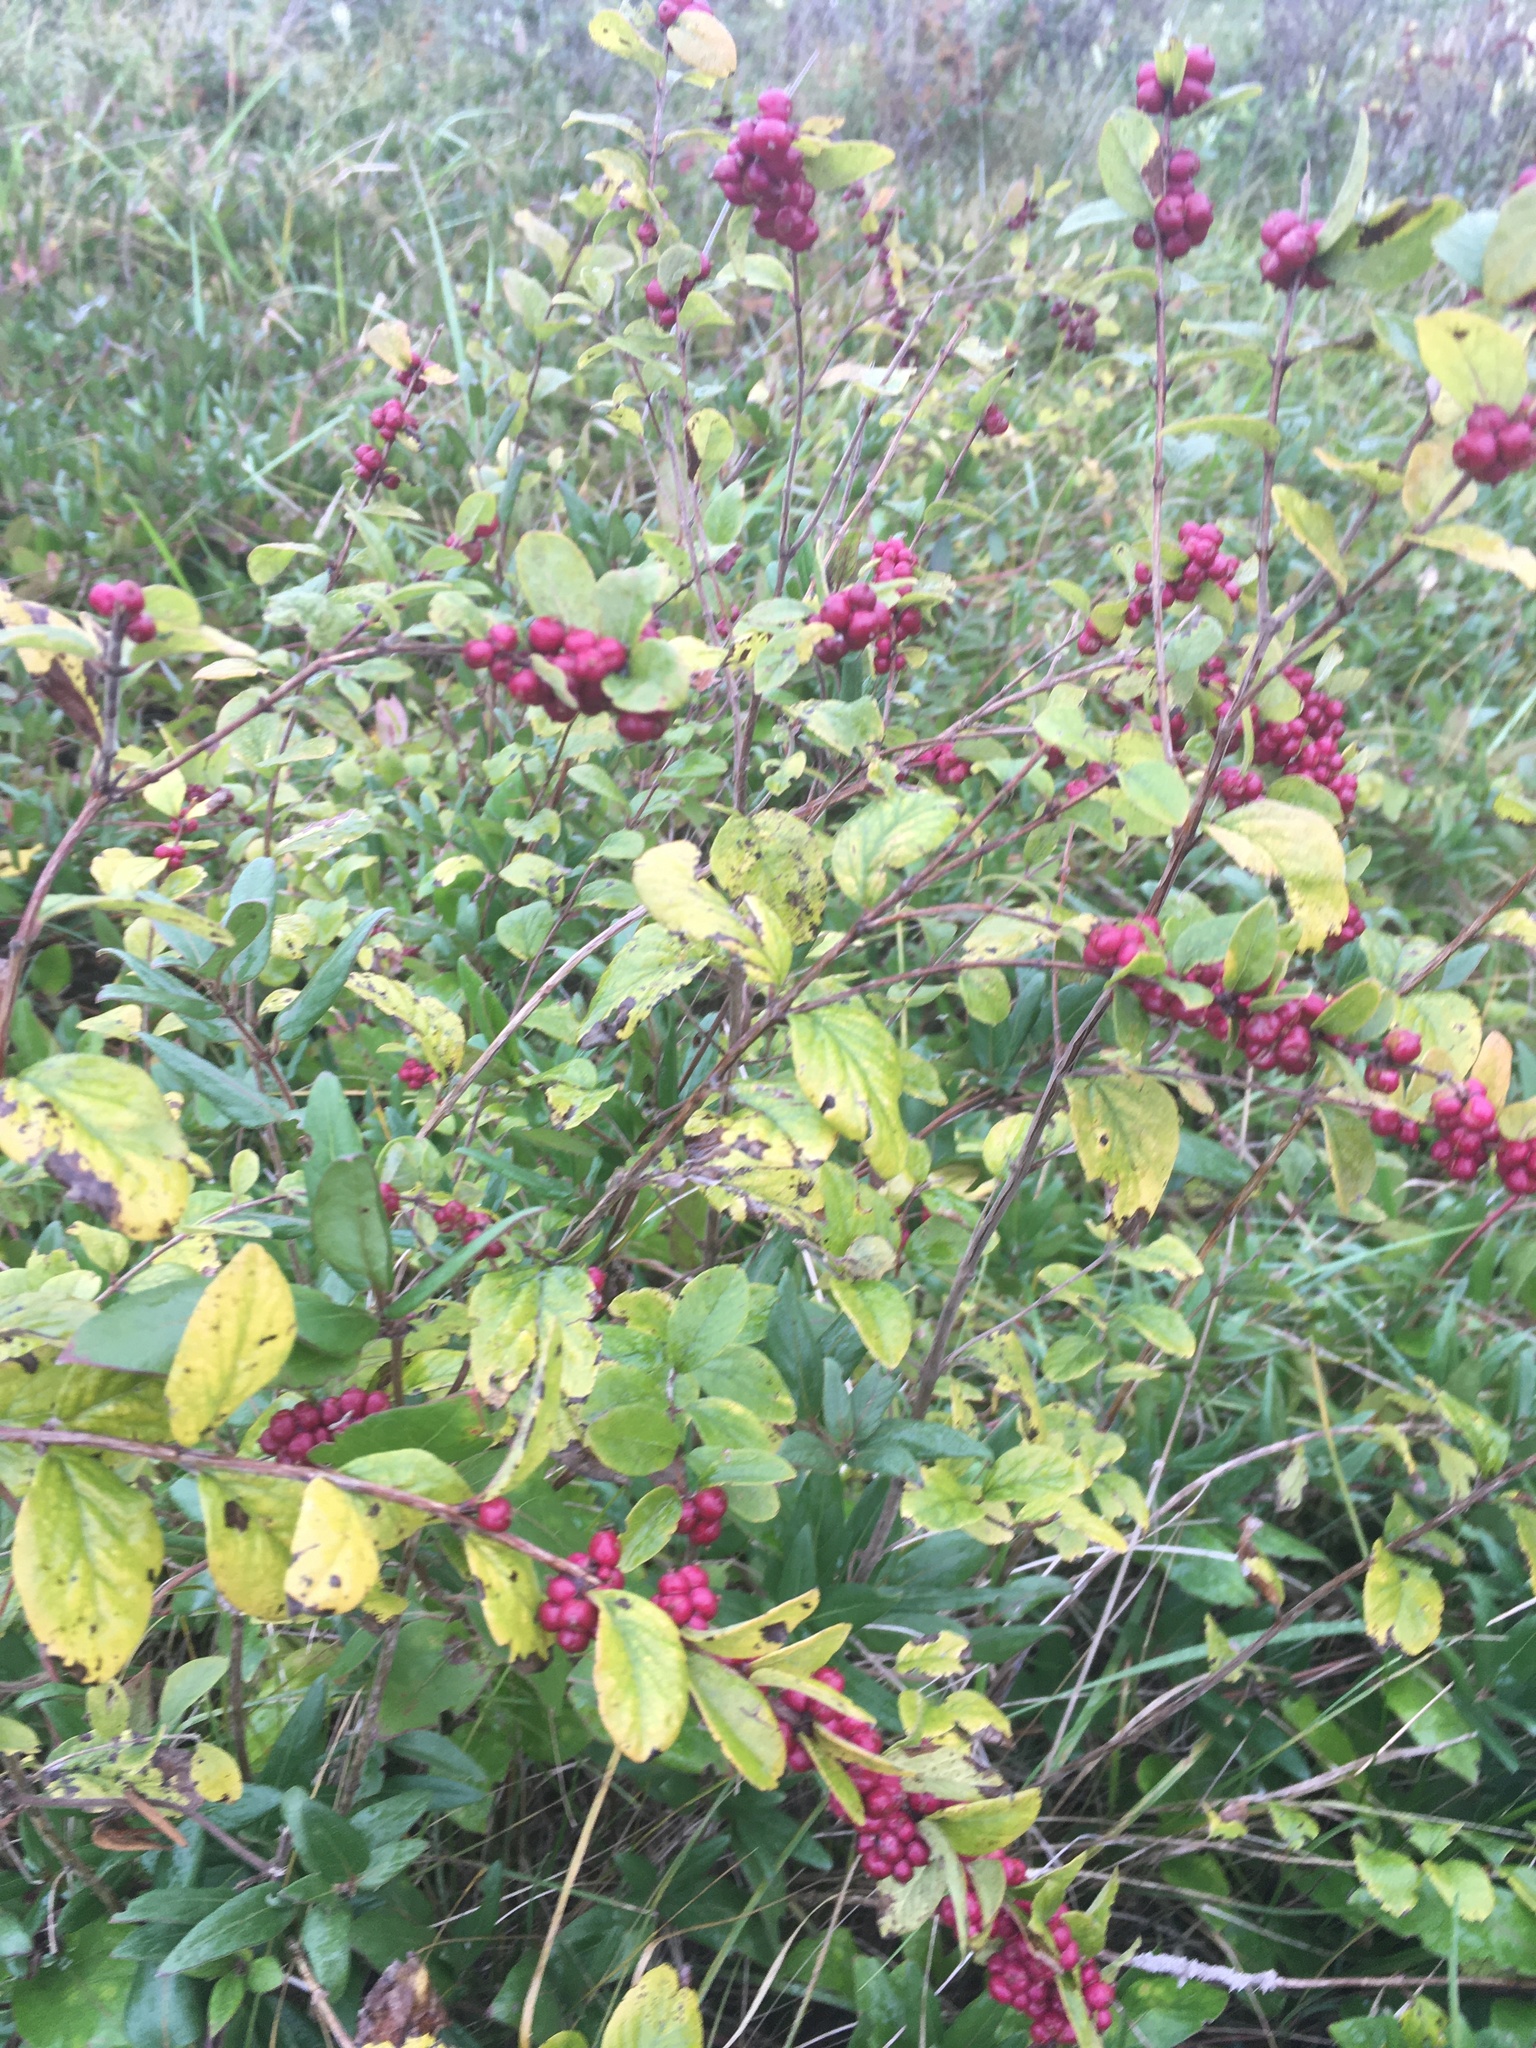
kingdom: Plantae
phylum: Tracheophyta
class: Magnoliopsida
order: Dipsacales
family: Caprifoliaceae
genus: Symphoricarpos
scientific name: Symphoricarpos orbiculatus
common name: Coralberry
